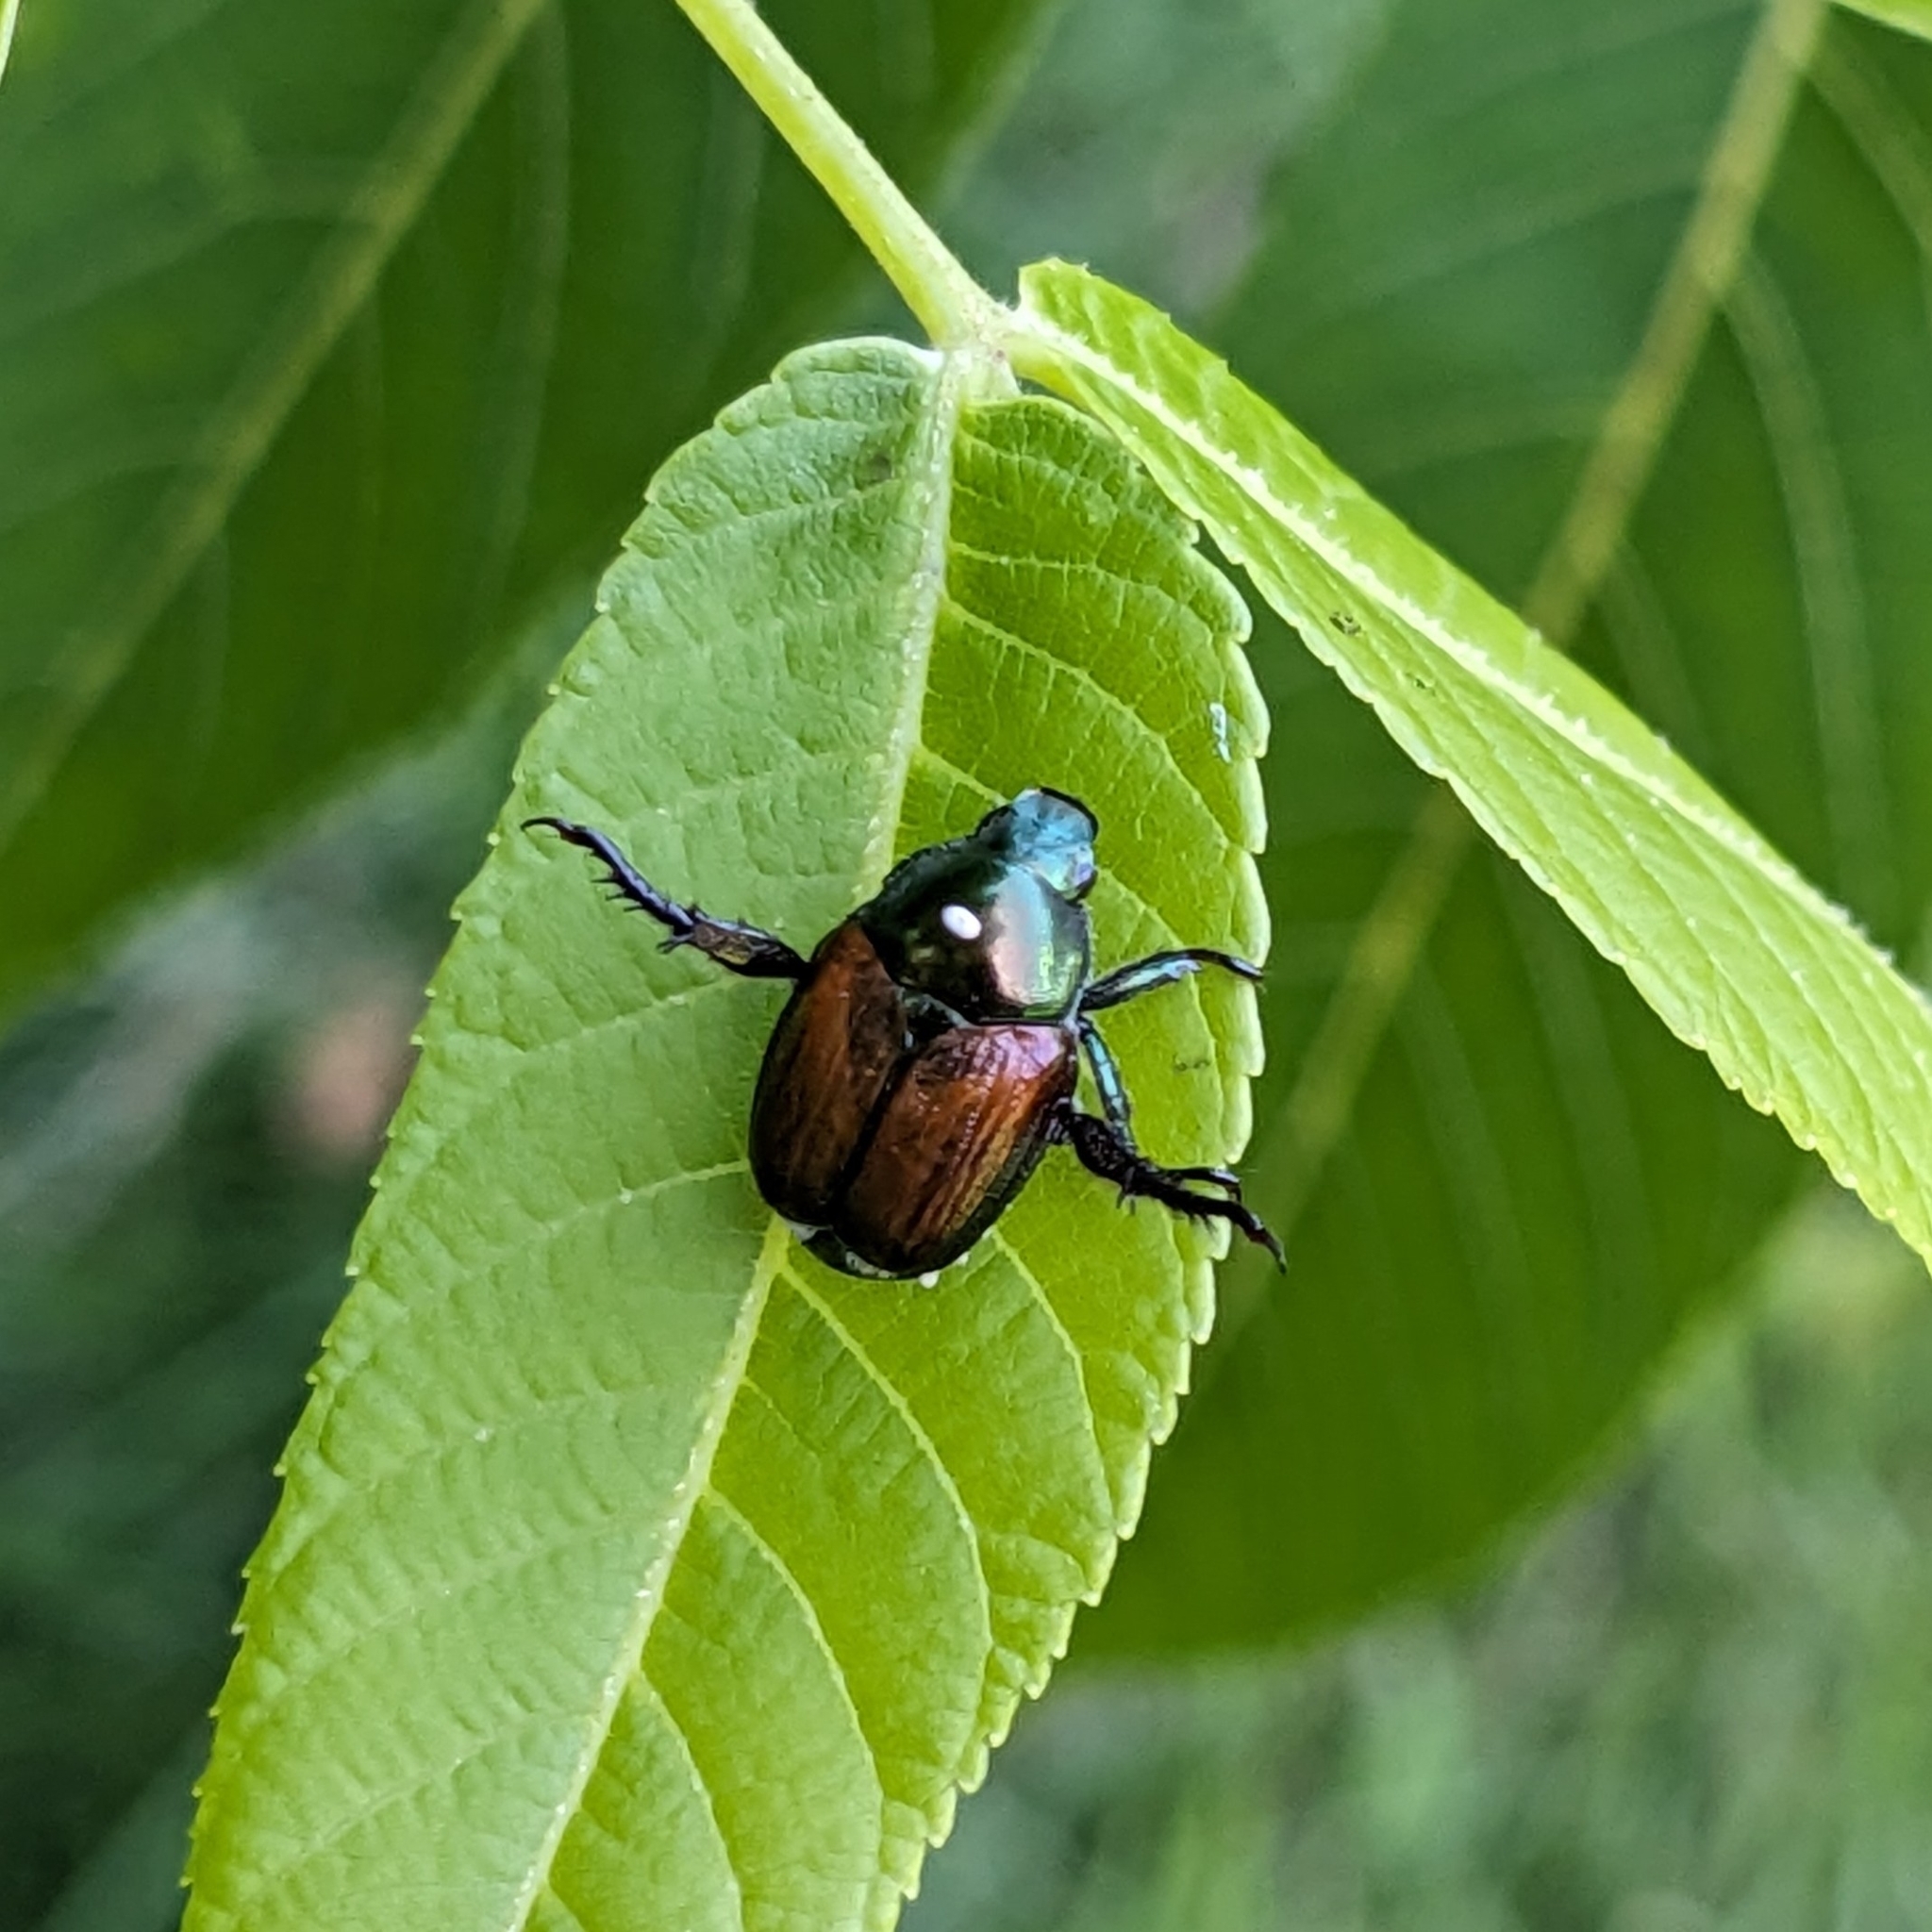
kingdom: Animalia
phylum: Arthropoda
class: Insecta
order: Coleoptera
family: Scarabaeidae
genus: Popillia
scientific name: Popillia japonica
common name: Japanese beetle
